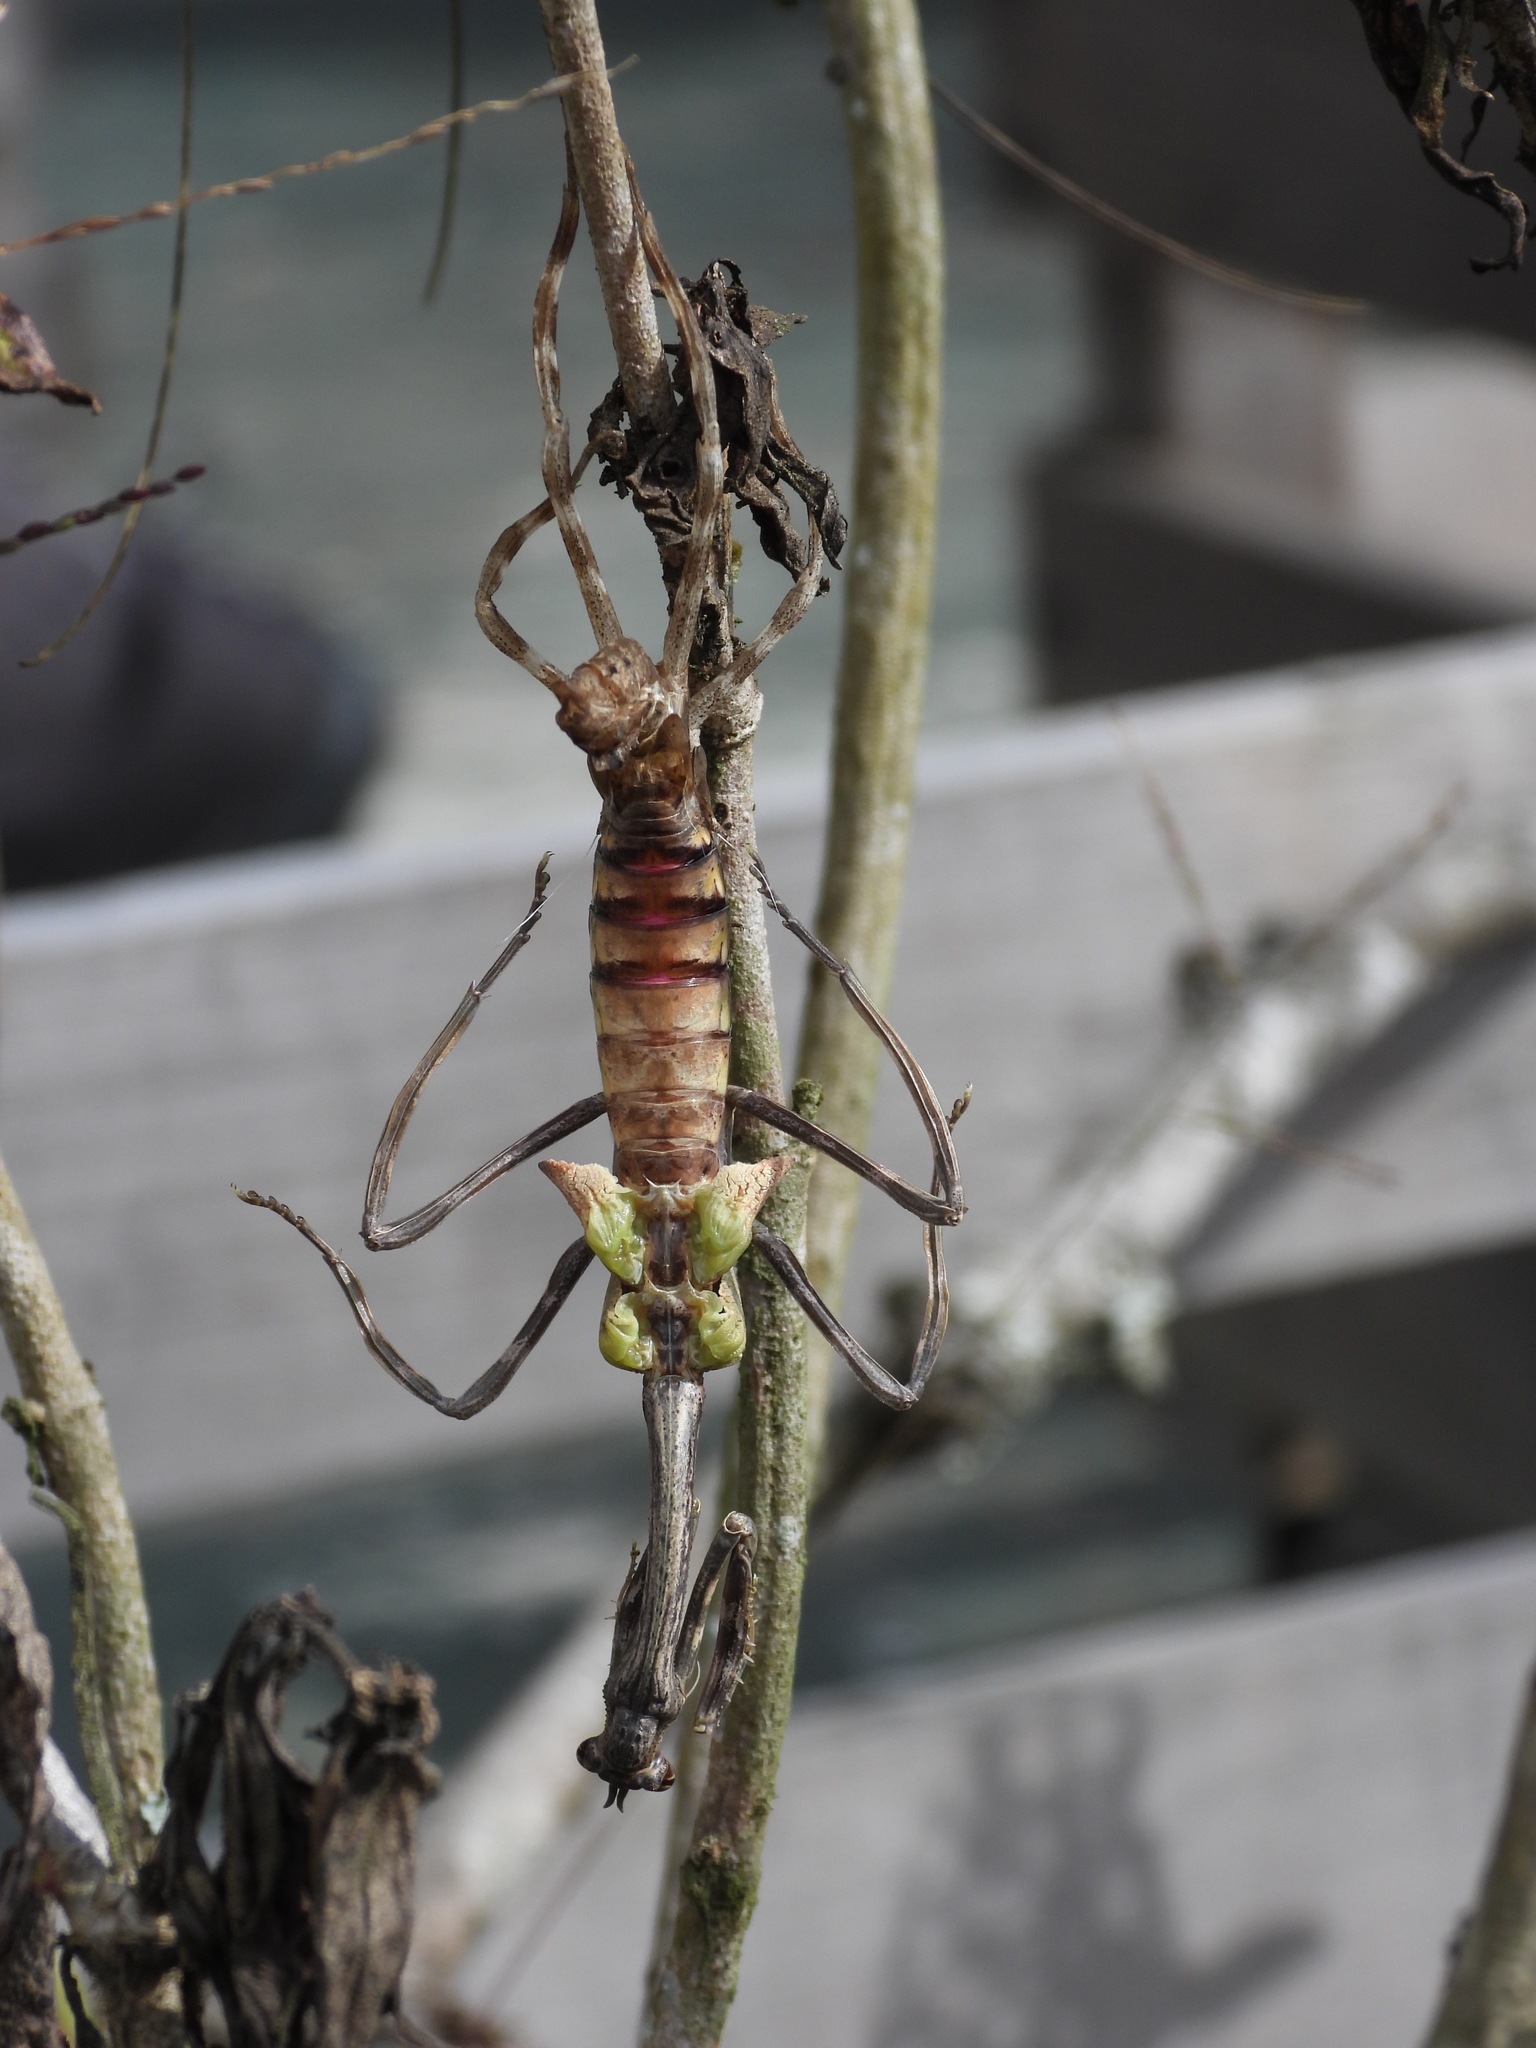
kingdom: Animalia
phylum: Arthropoda
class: Insecta
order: Mantodea
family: Mantidae
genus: Pseudovates
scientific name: Pseudovates chlorophaea
